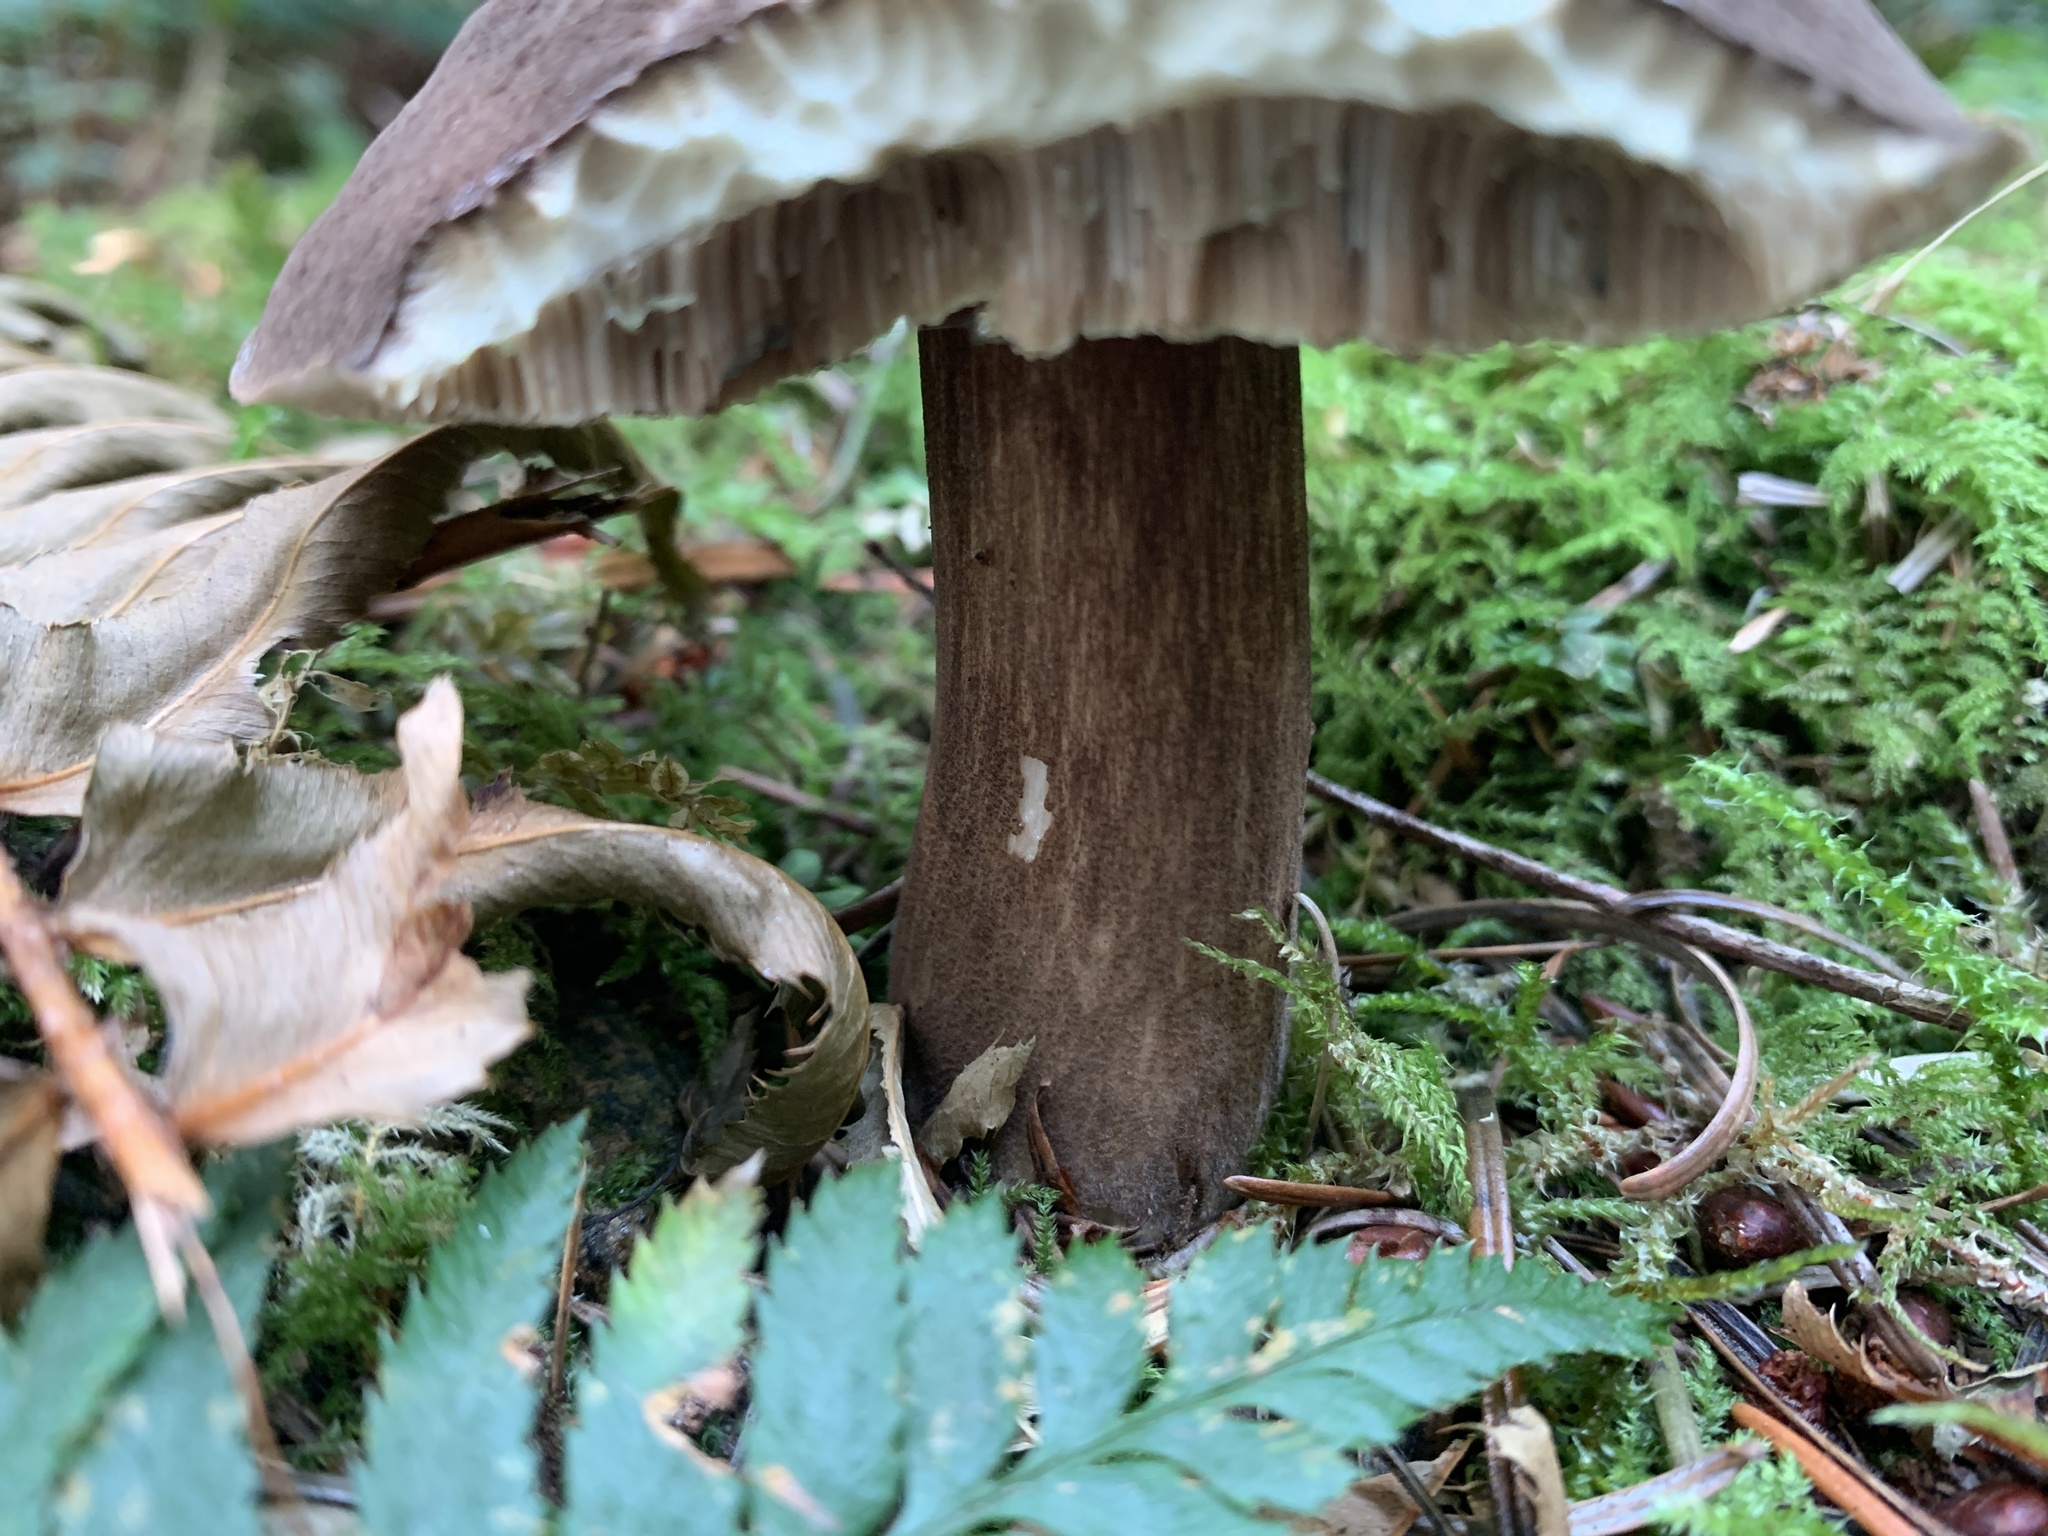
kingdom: Fungi
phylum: Basidiomycota
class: Agaricomycetes
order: Boletales
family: Boletaceae
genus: Aureoboletus
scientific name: Aureoboletus mirabilis
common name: Admirable bolete
